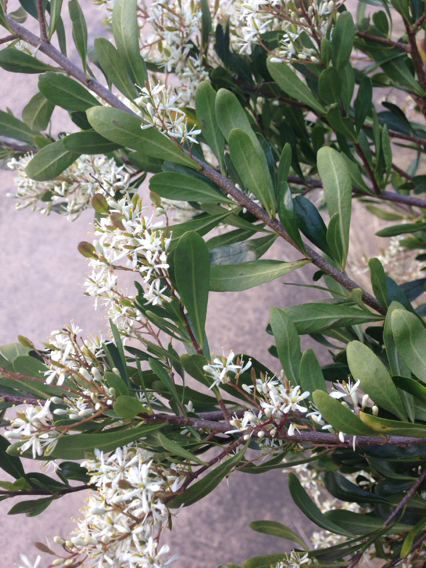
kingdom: Plantae
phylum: Tracheophyta
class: Magnoliopsida
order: Apiales
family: Pittosporaceae
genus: Bursaria
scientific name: Bursaria spinosa
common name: Australian blackthorn
